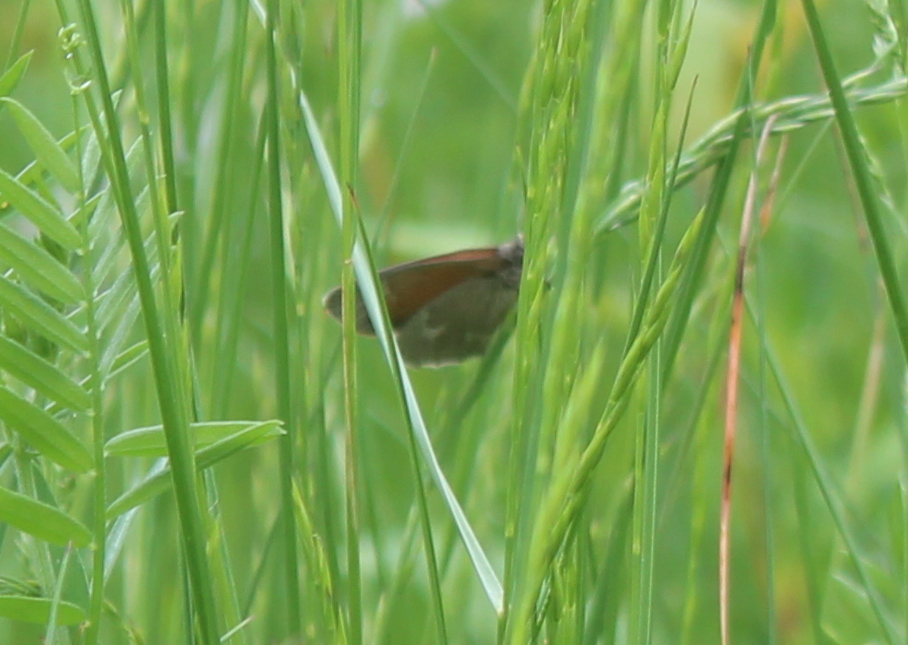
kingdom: Animalia
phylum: Arthropoda
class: Insecta
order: Lepidoptera
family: Nymphalidae
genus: Coenonympha
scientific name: Coenonympha california
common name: Common ringlet
